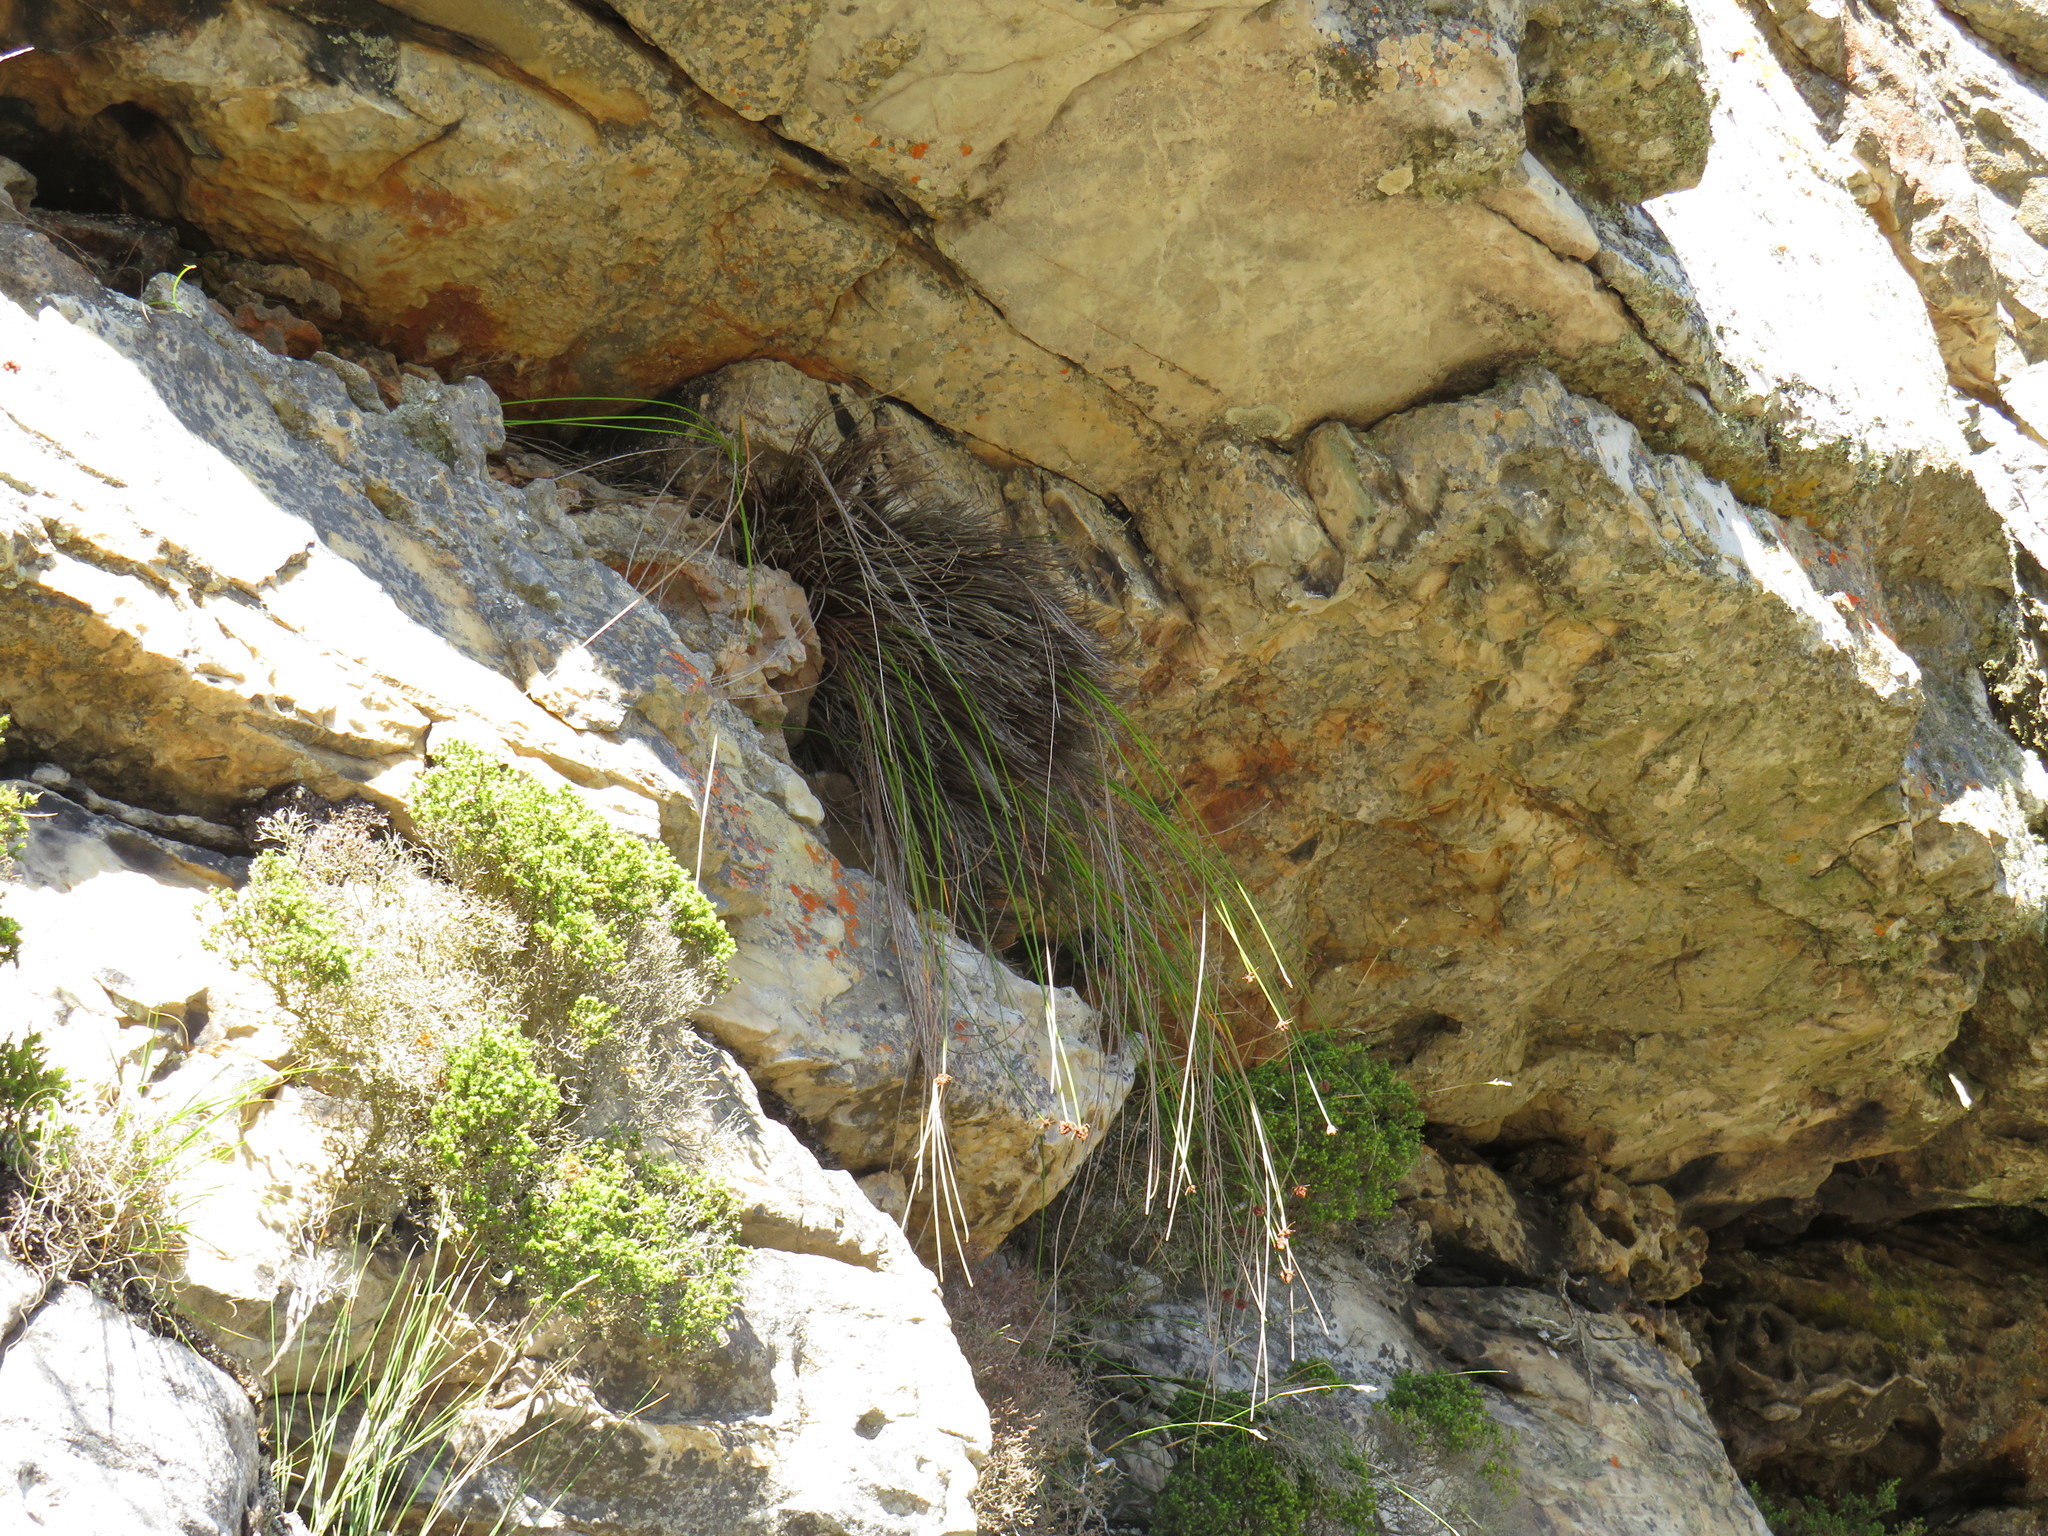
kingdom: Plantae
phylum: Tracheophyta
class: Liliopsida
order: Poales
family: Cyperaceae
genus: Ficinia
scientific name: Ficinia brevifolia
